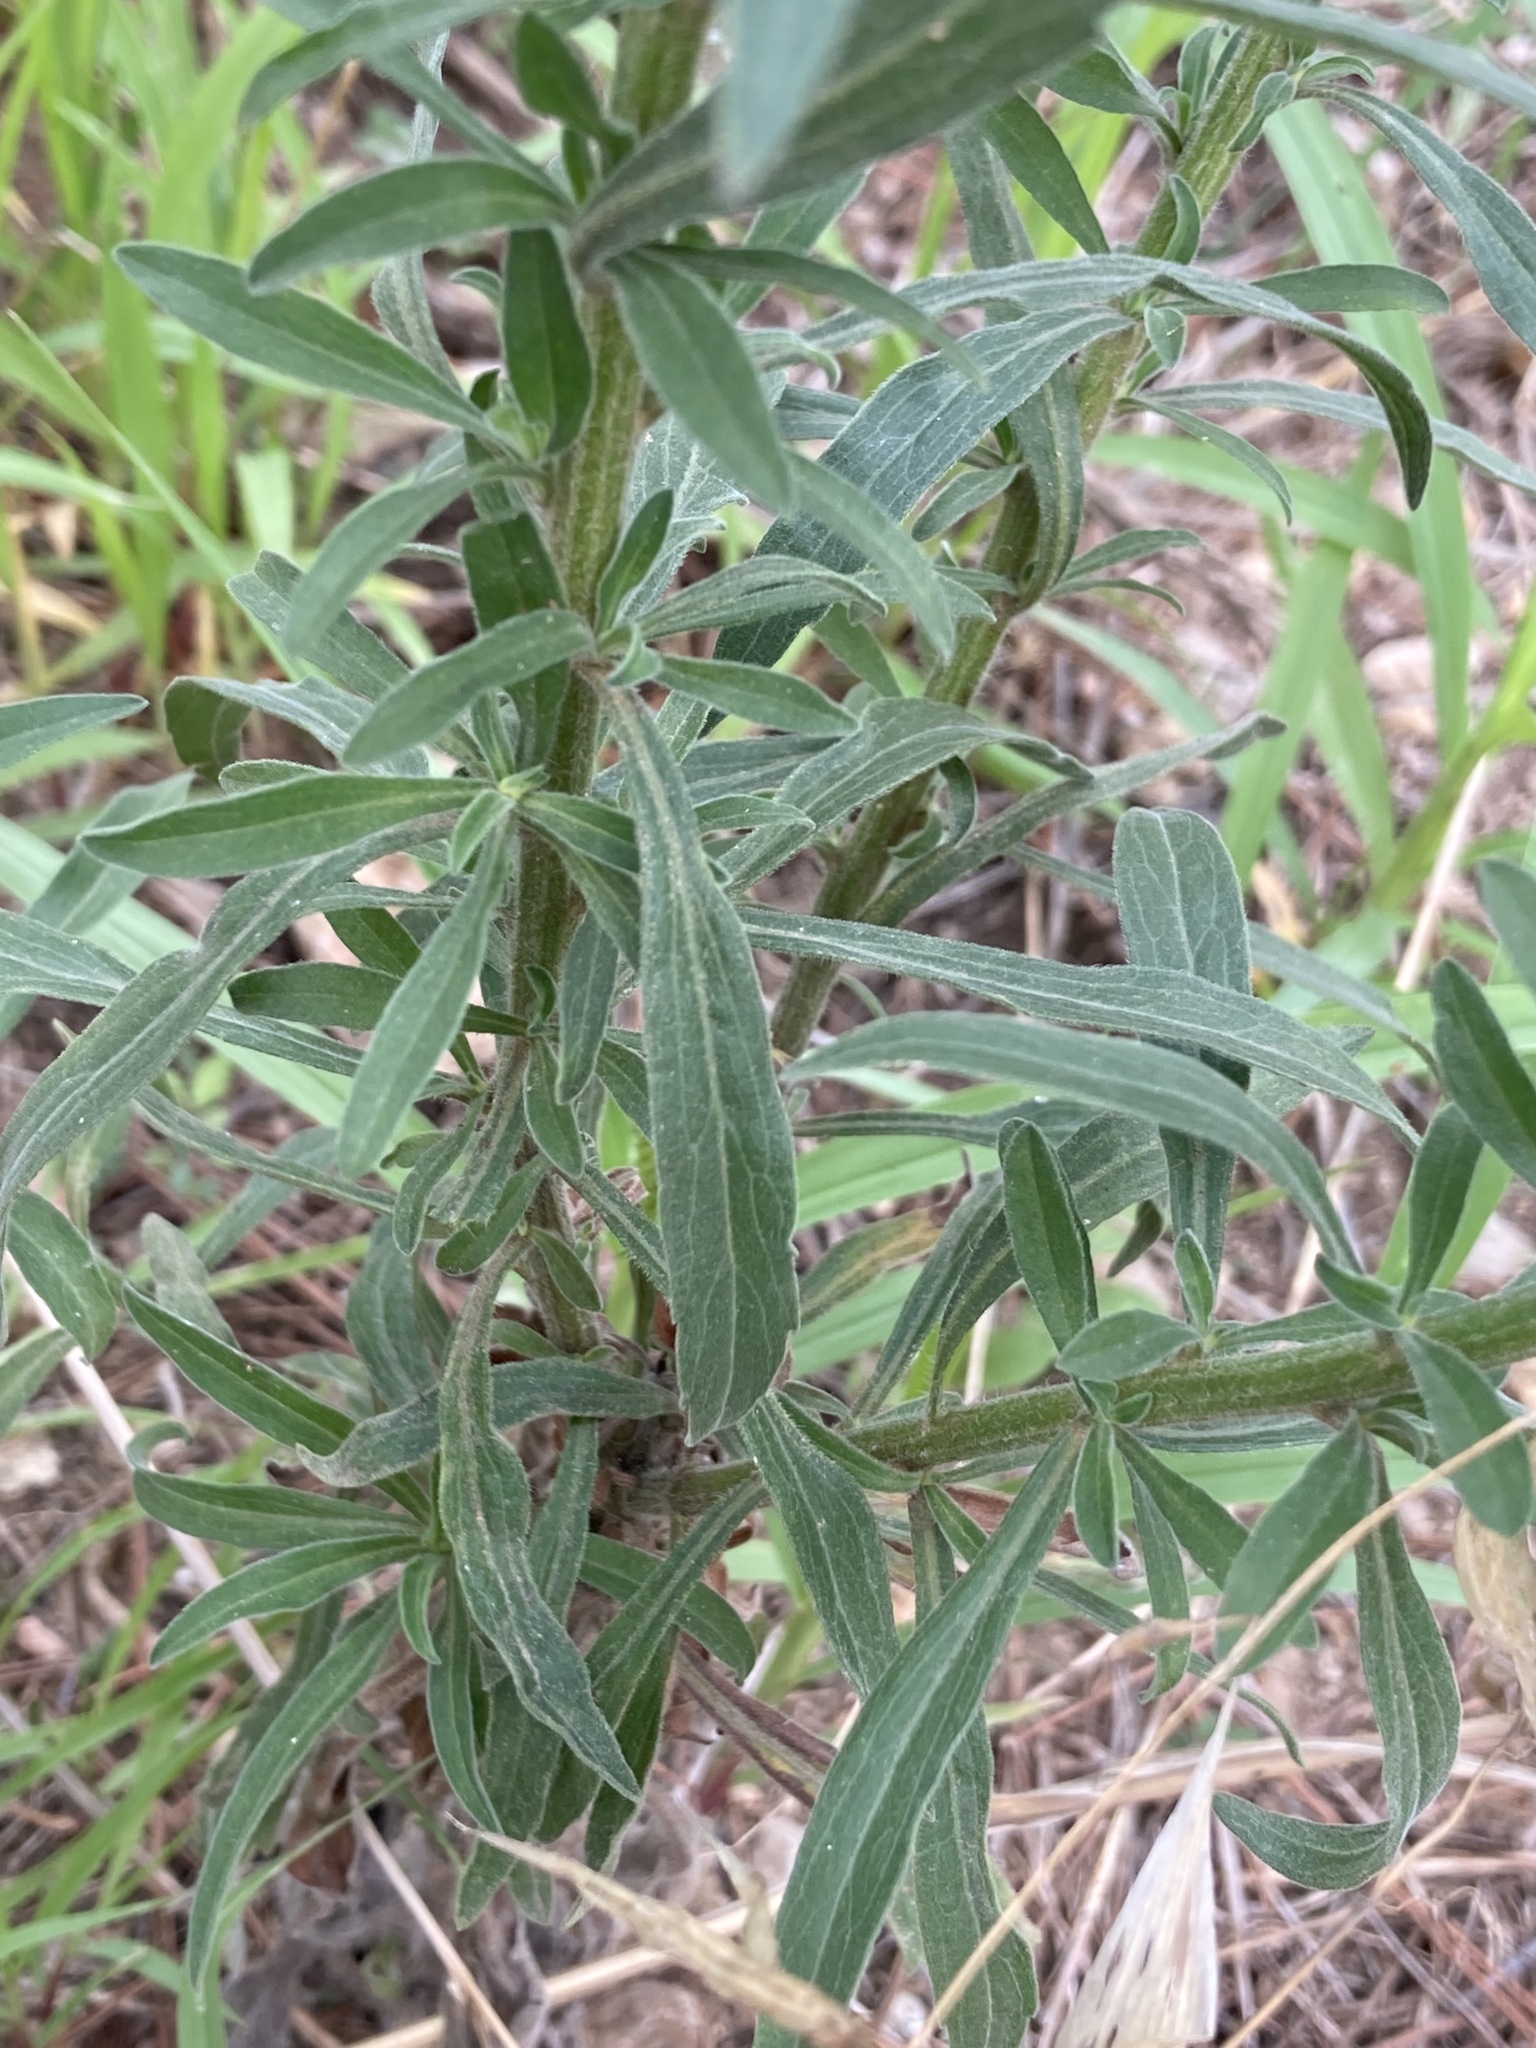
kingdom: Plantae
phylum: Tracheophyta
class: Magnoliopsida
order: Asterales
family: Asteraceae
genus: Erigeron
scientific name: Erigeron sumatrensis
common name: Daisy
